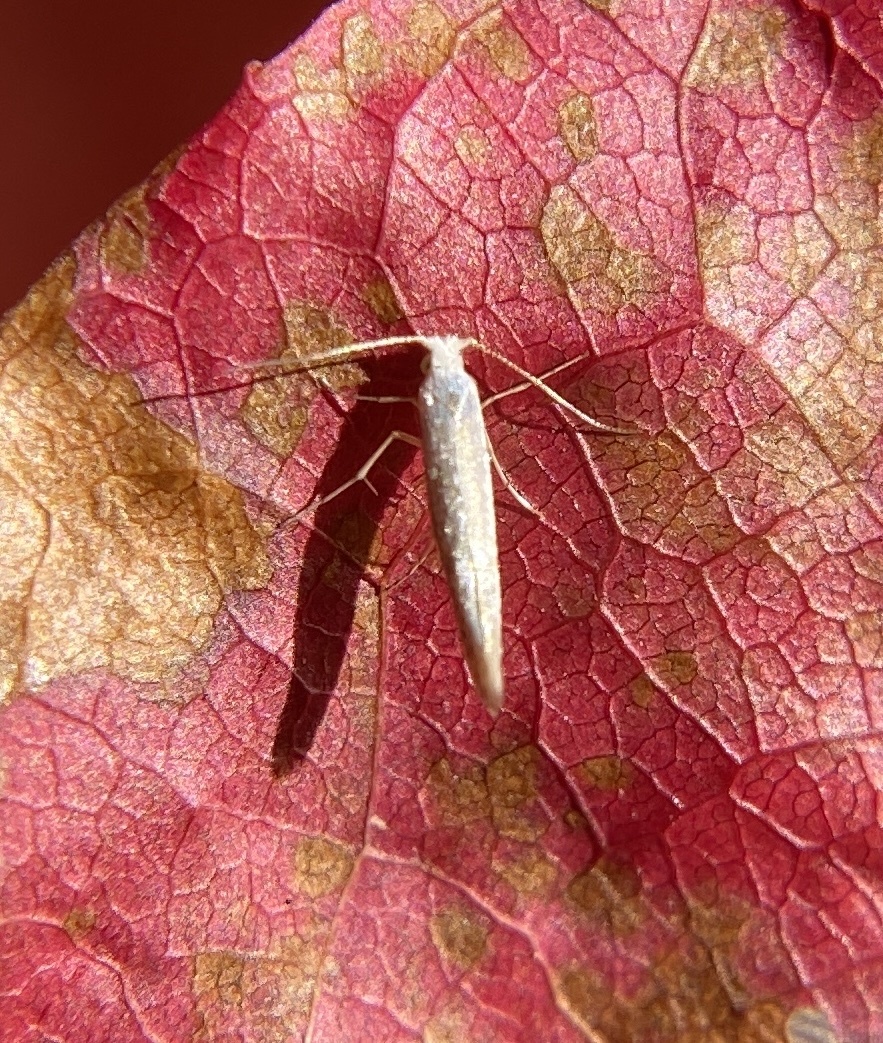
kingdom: Animalia
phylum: Arthropoda
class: Insecta
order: Lepidoptera
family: Argyresthiidae
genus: Argyresthia
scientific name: Argyresthia subreticulata
